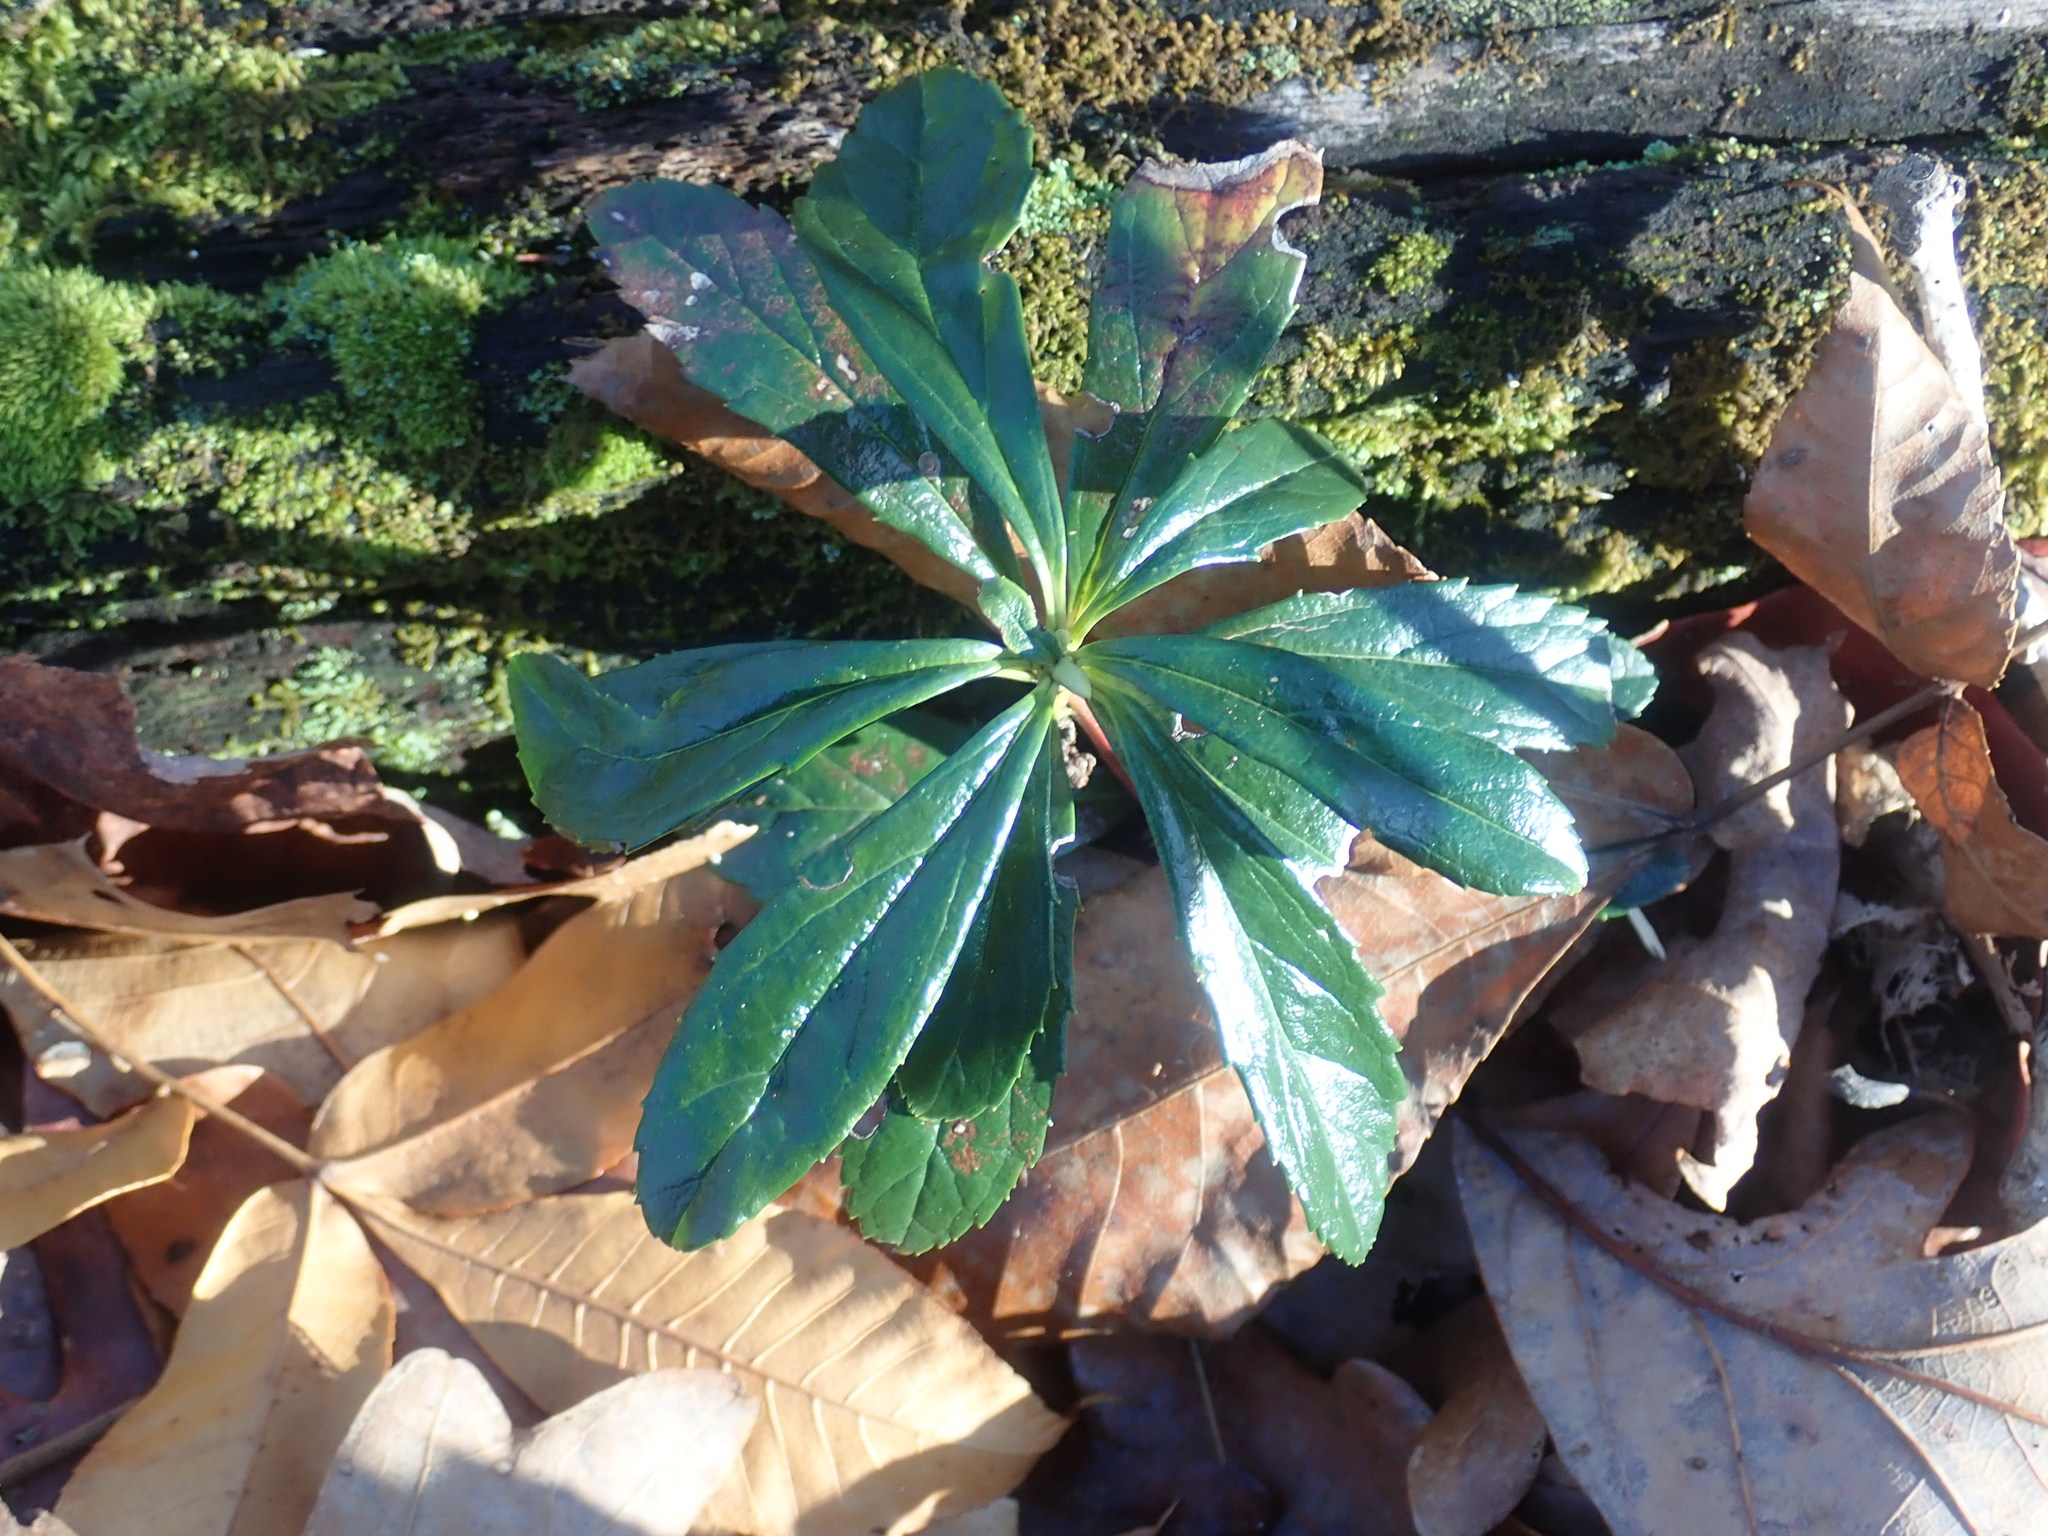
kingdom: Plantae
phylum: Tracheophyta
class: Magnoliopsida
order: Ericales
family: Ericaceae
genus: Chimaphila
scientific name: Chimaphila umbellata
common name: Pipsissewa
